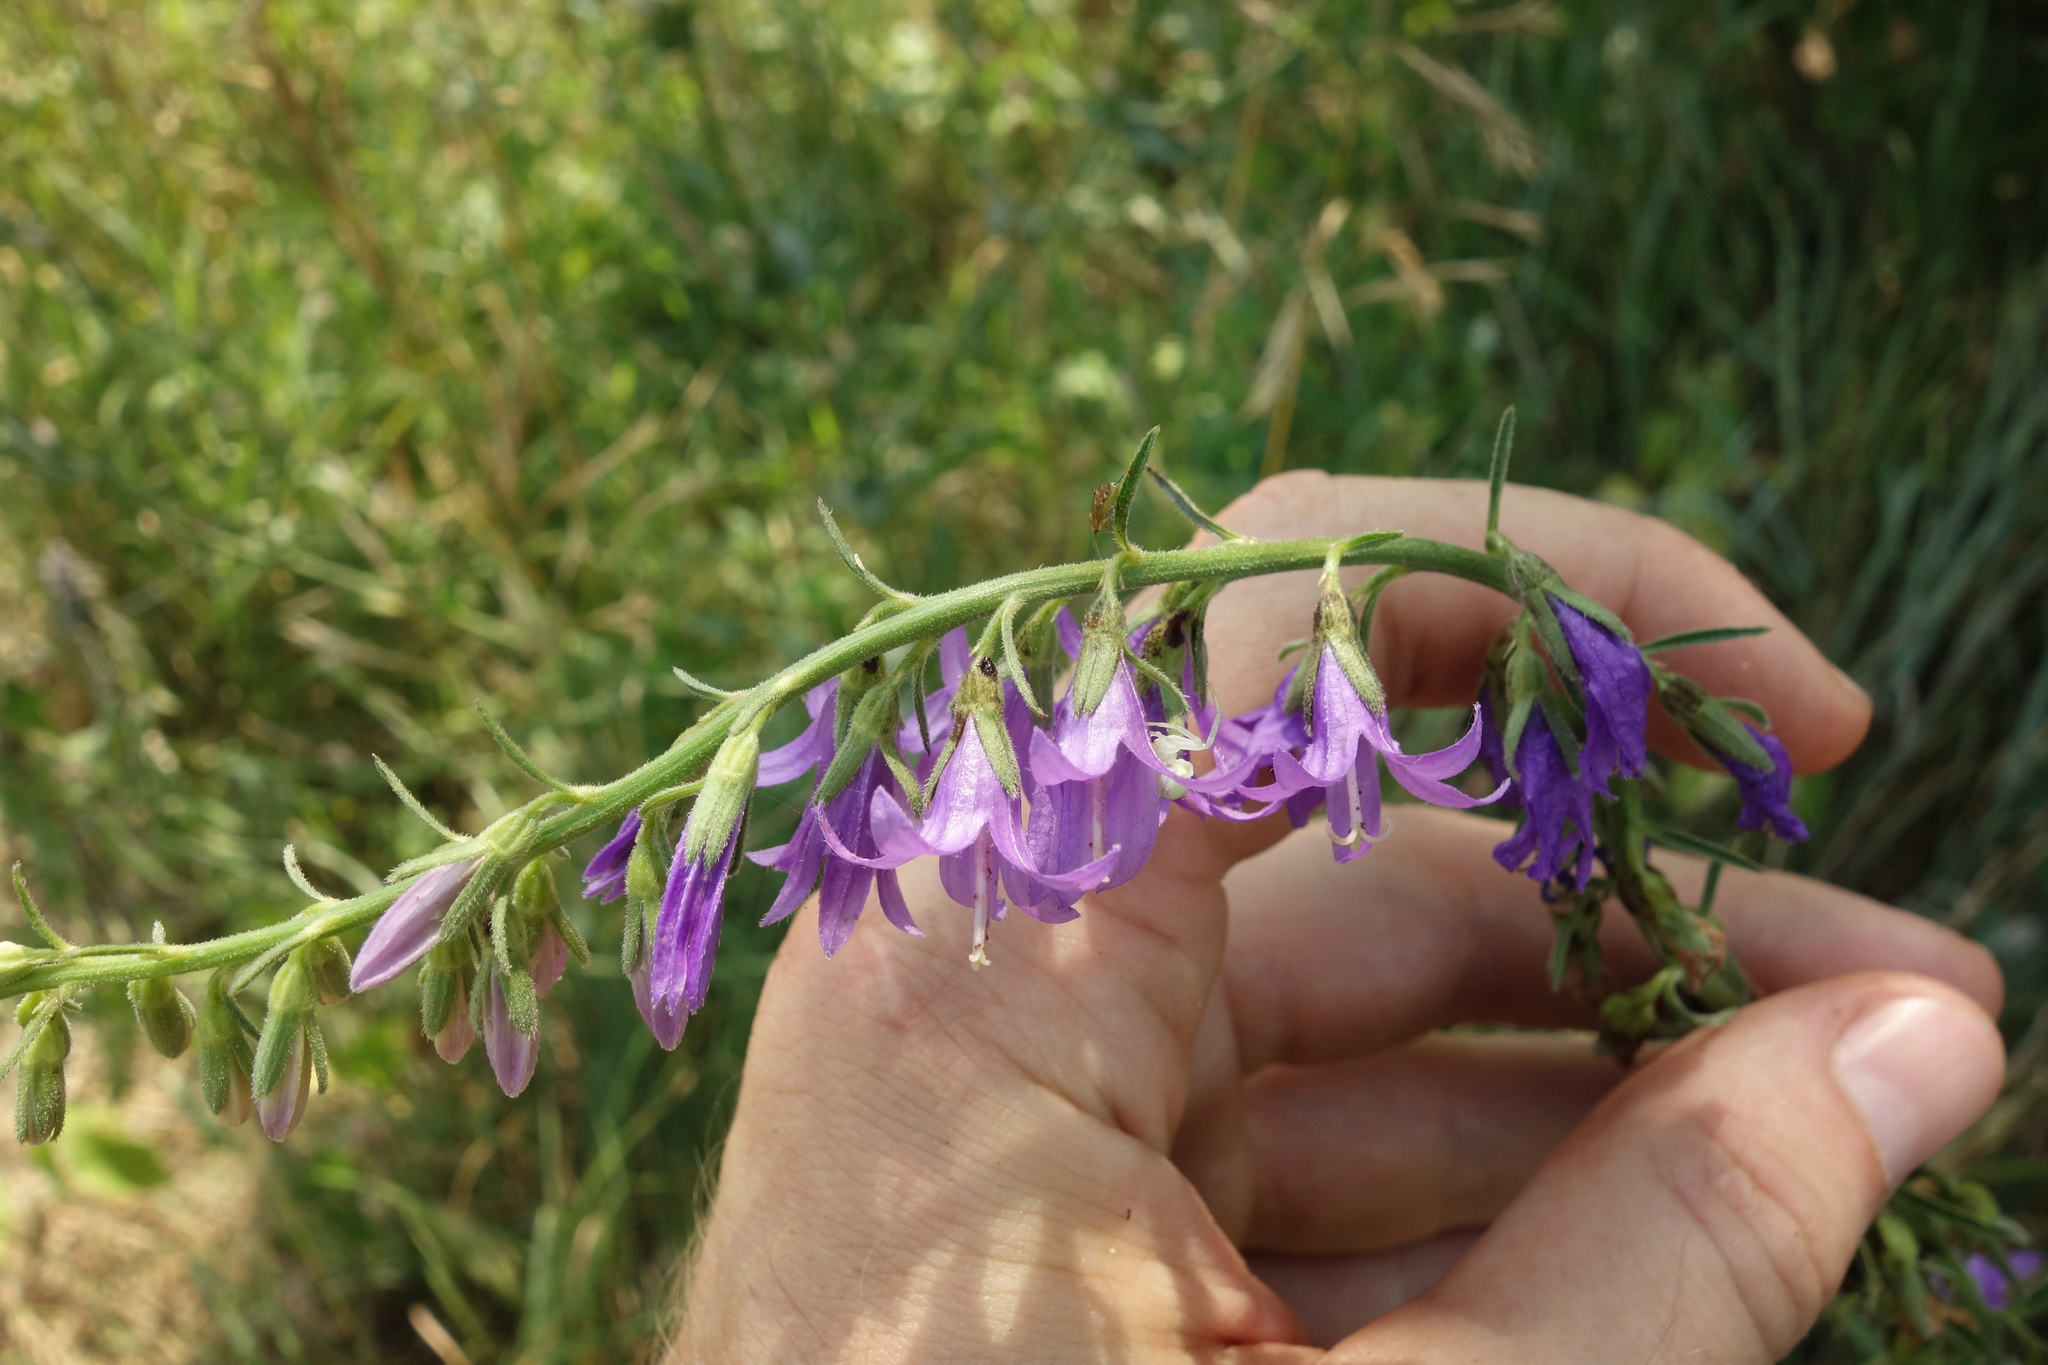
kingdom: Plantae
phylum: Tracheophyta
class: Magnoliopsida
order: Asterales
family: Campanulaceae
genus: Campanula
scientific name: Campanula rapunculoides
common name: Creeping bellflower
